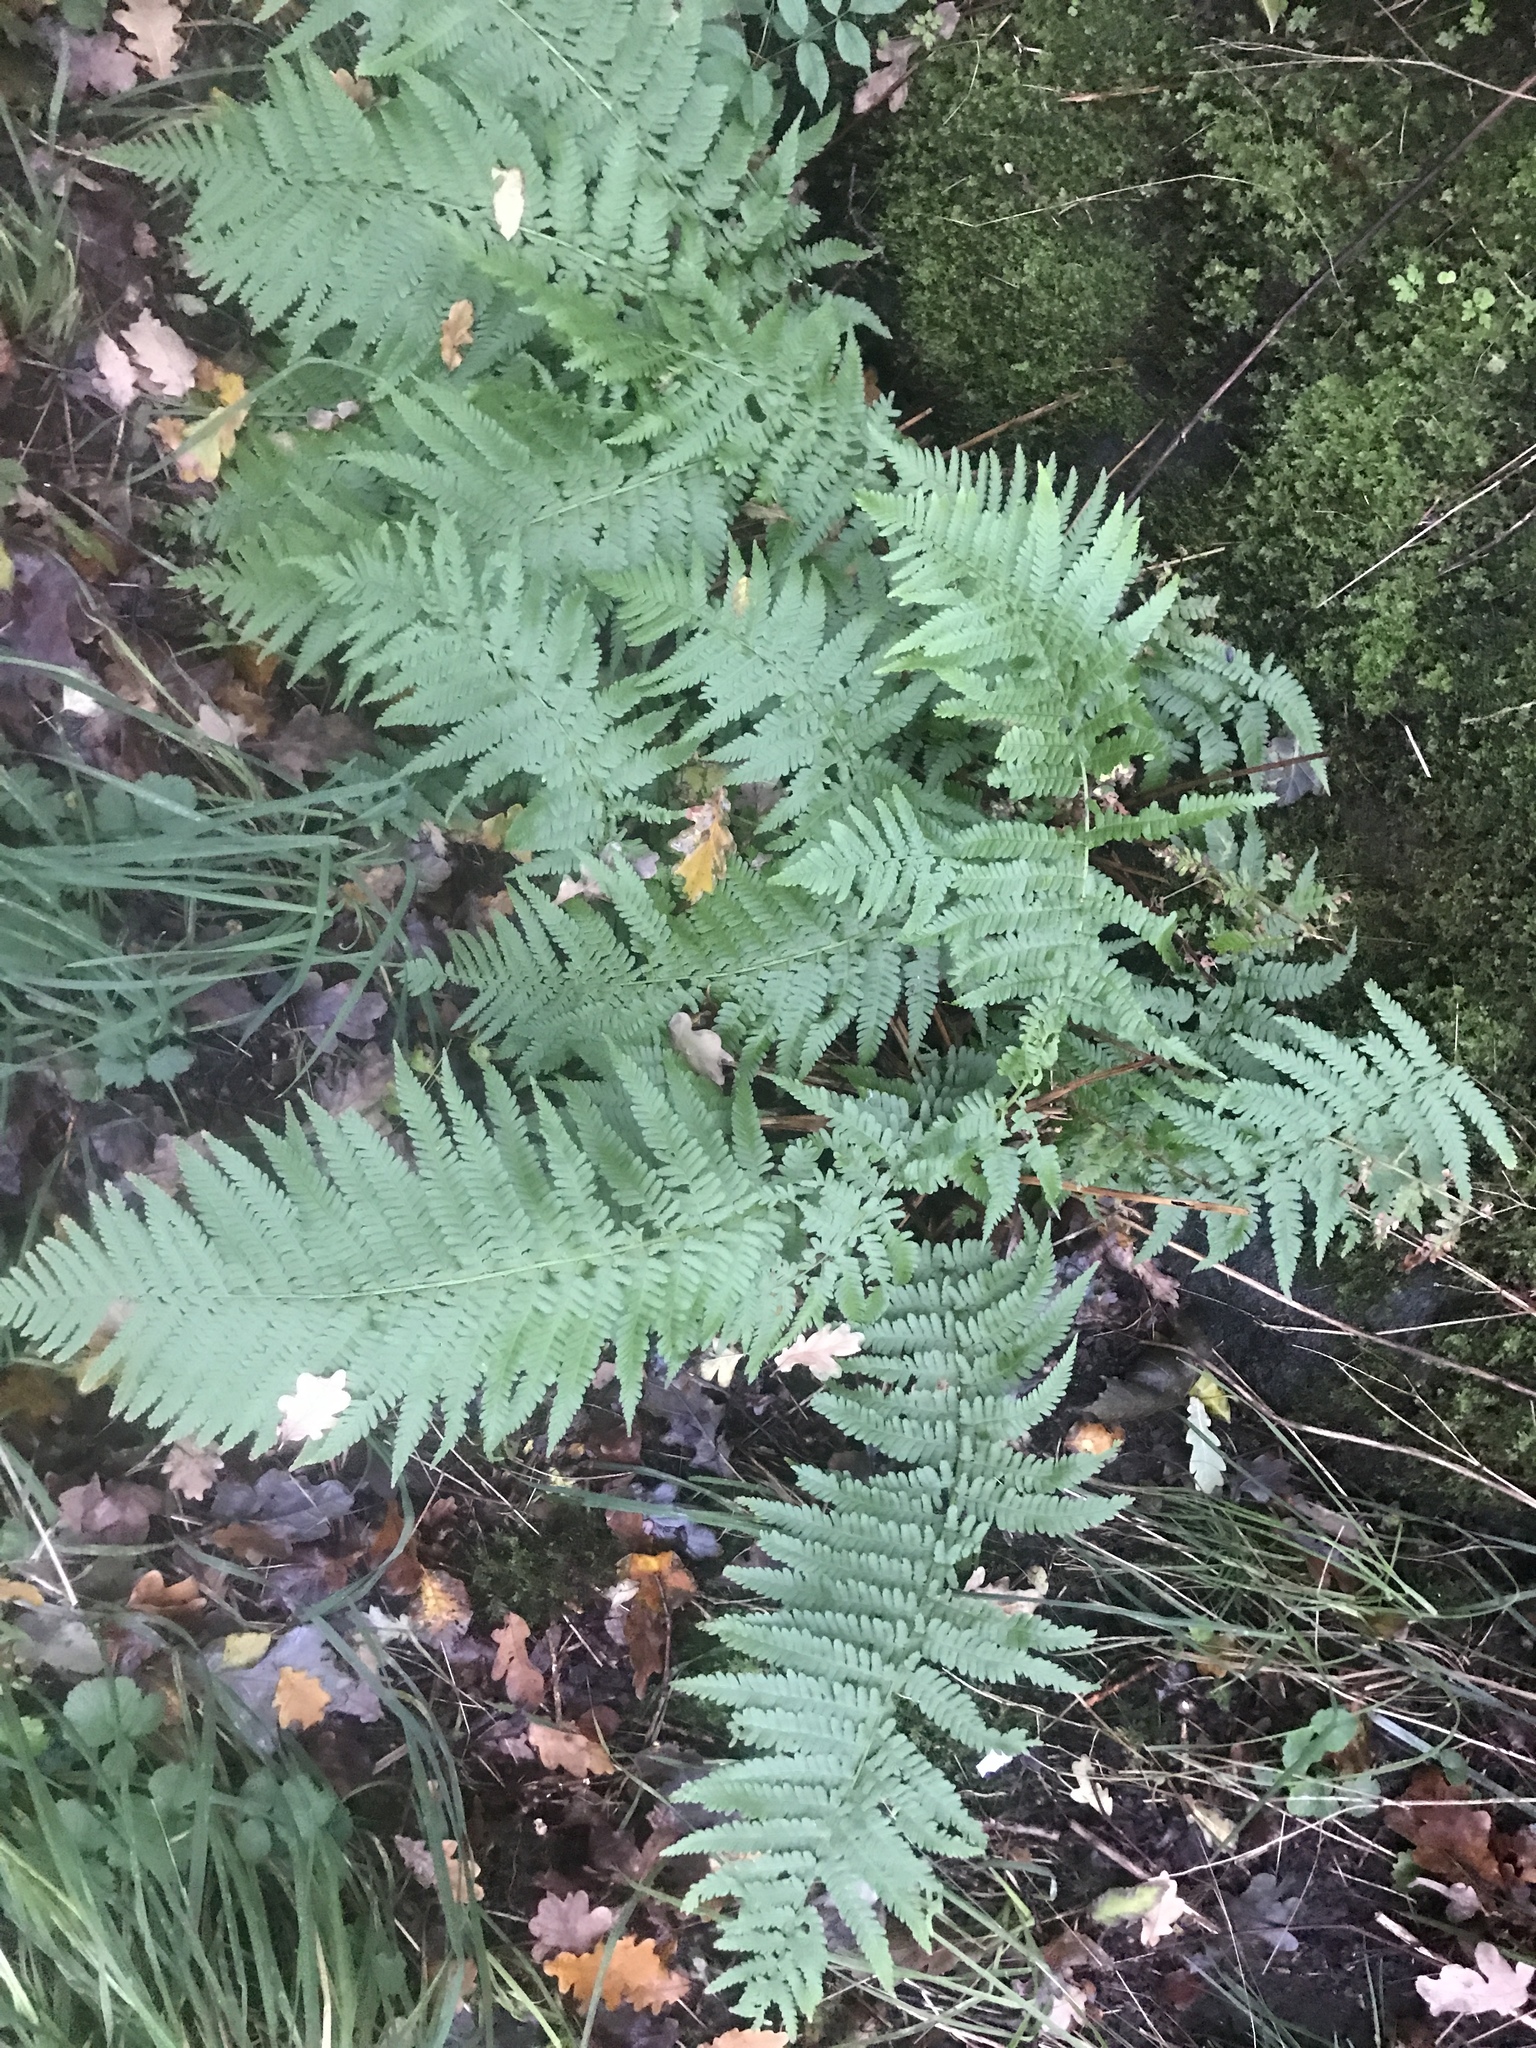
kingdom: Plantae
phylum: Tracheophyta
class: Polypodiopsida
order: Polypodiales
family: Dryopteridaceae
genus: Dryopteris
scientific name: Dryopteris filix-mas
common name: Male fern
